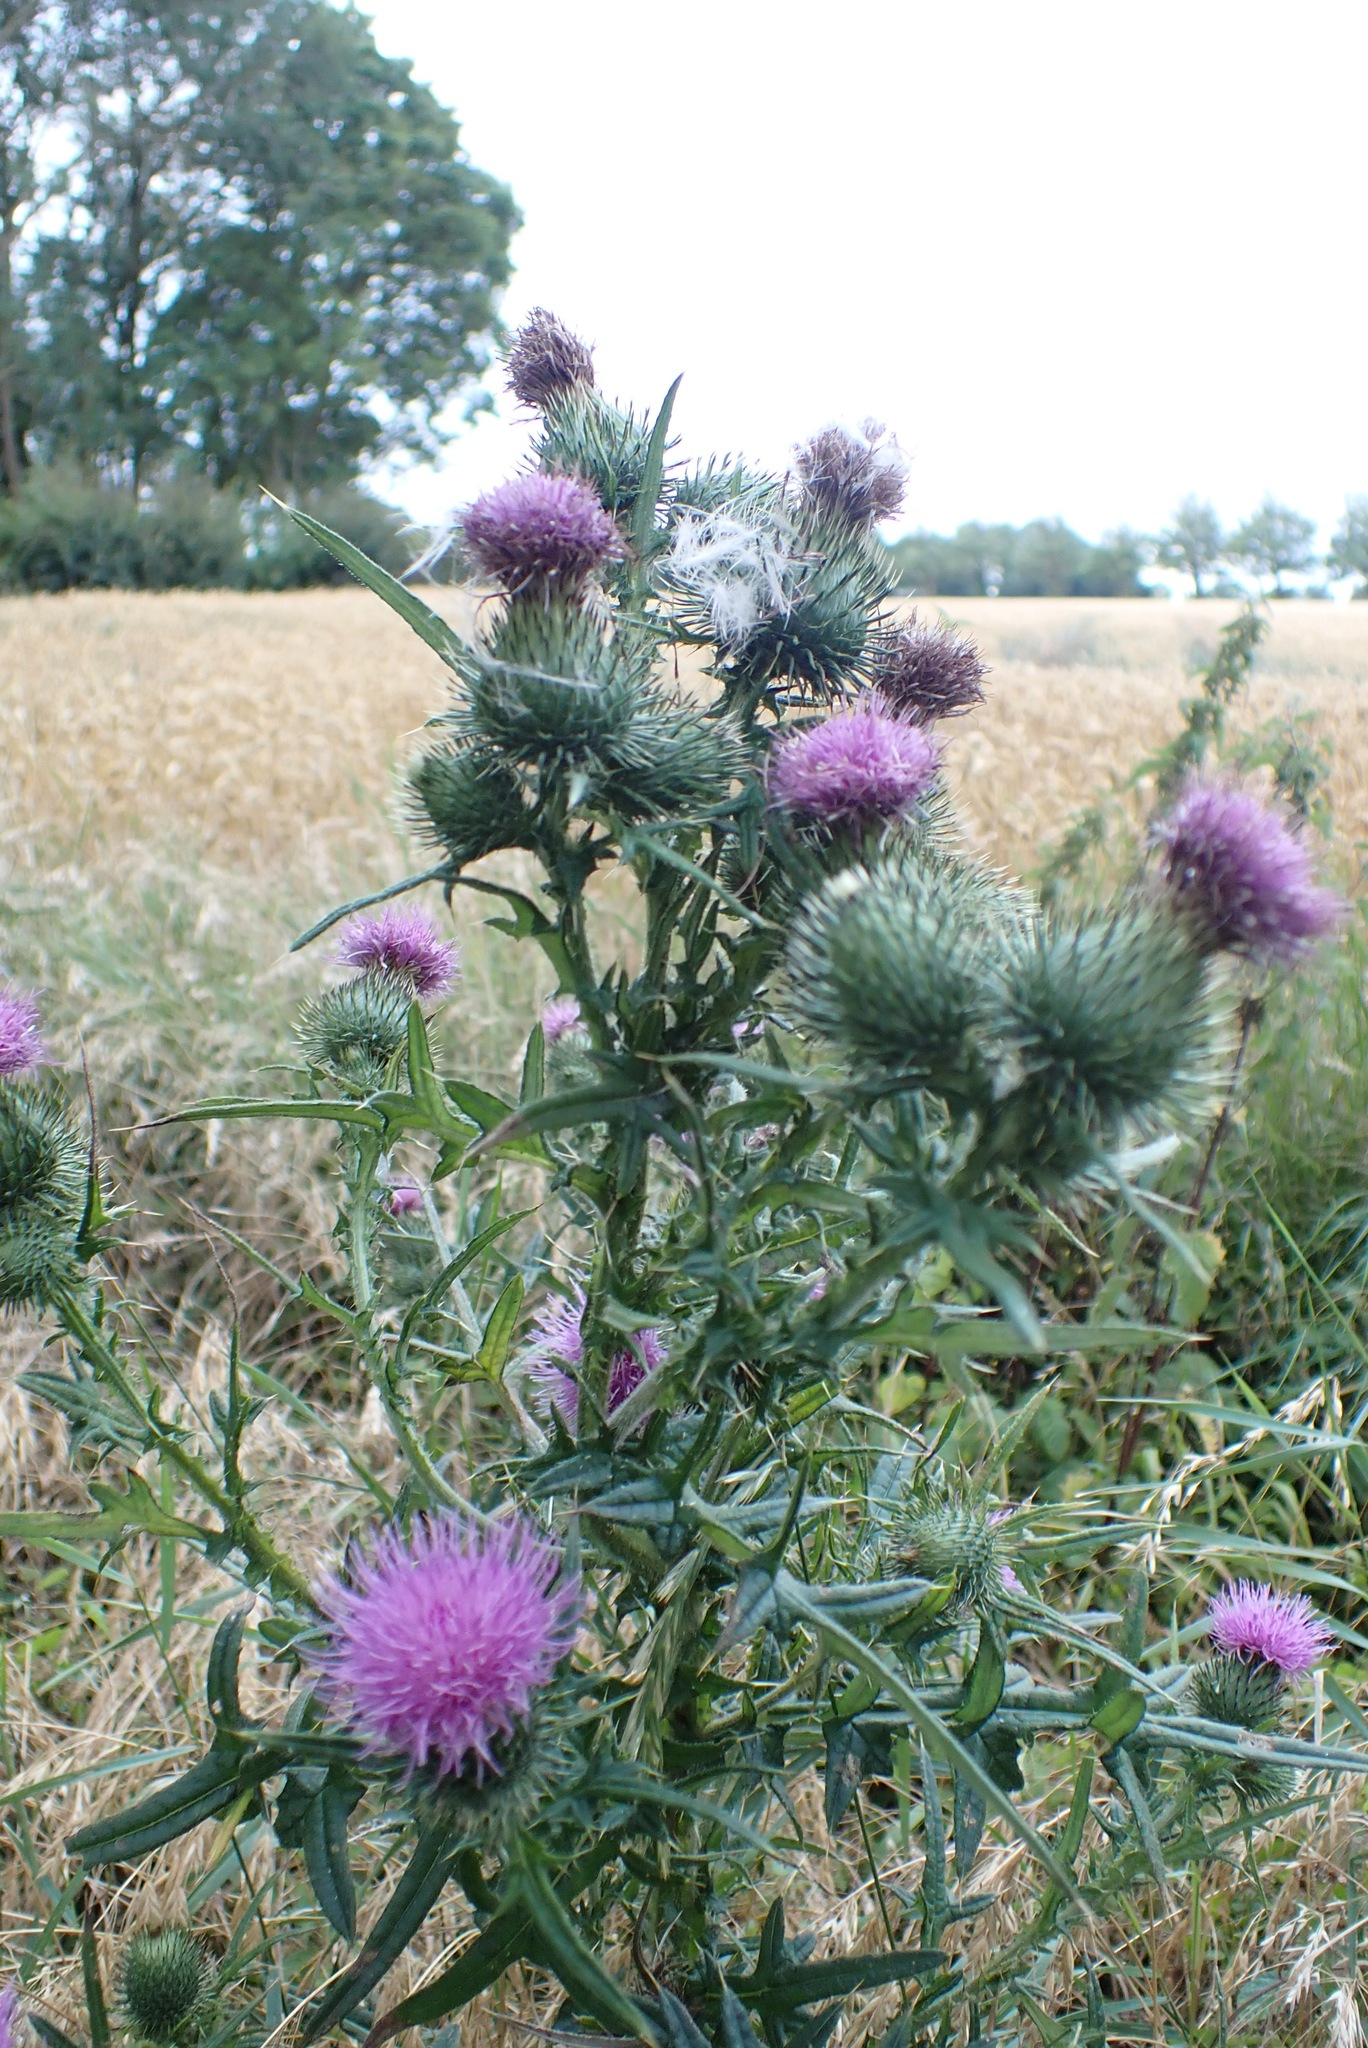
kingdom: Plantae
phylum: Tracheophyta
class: Magnoliopsida
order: Asterales
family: Asteraceae
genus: Cirsium
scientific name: Cirsium vulgare
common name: Bull thistle
